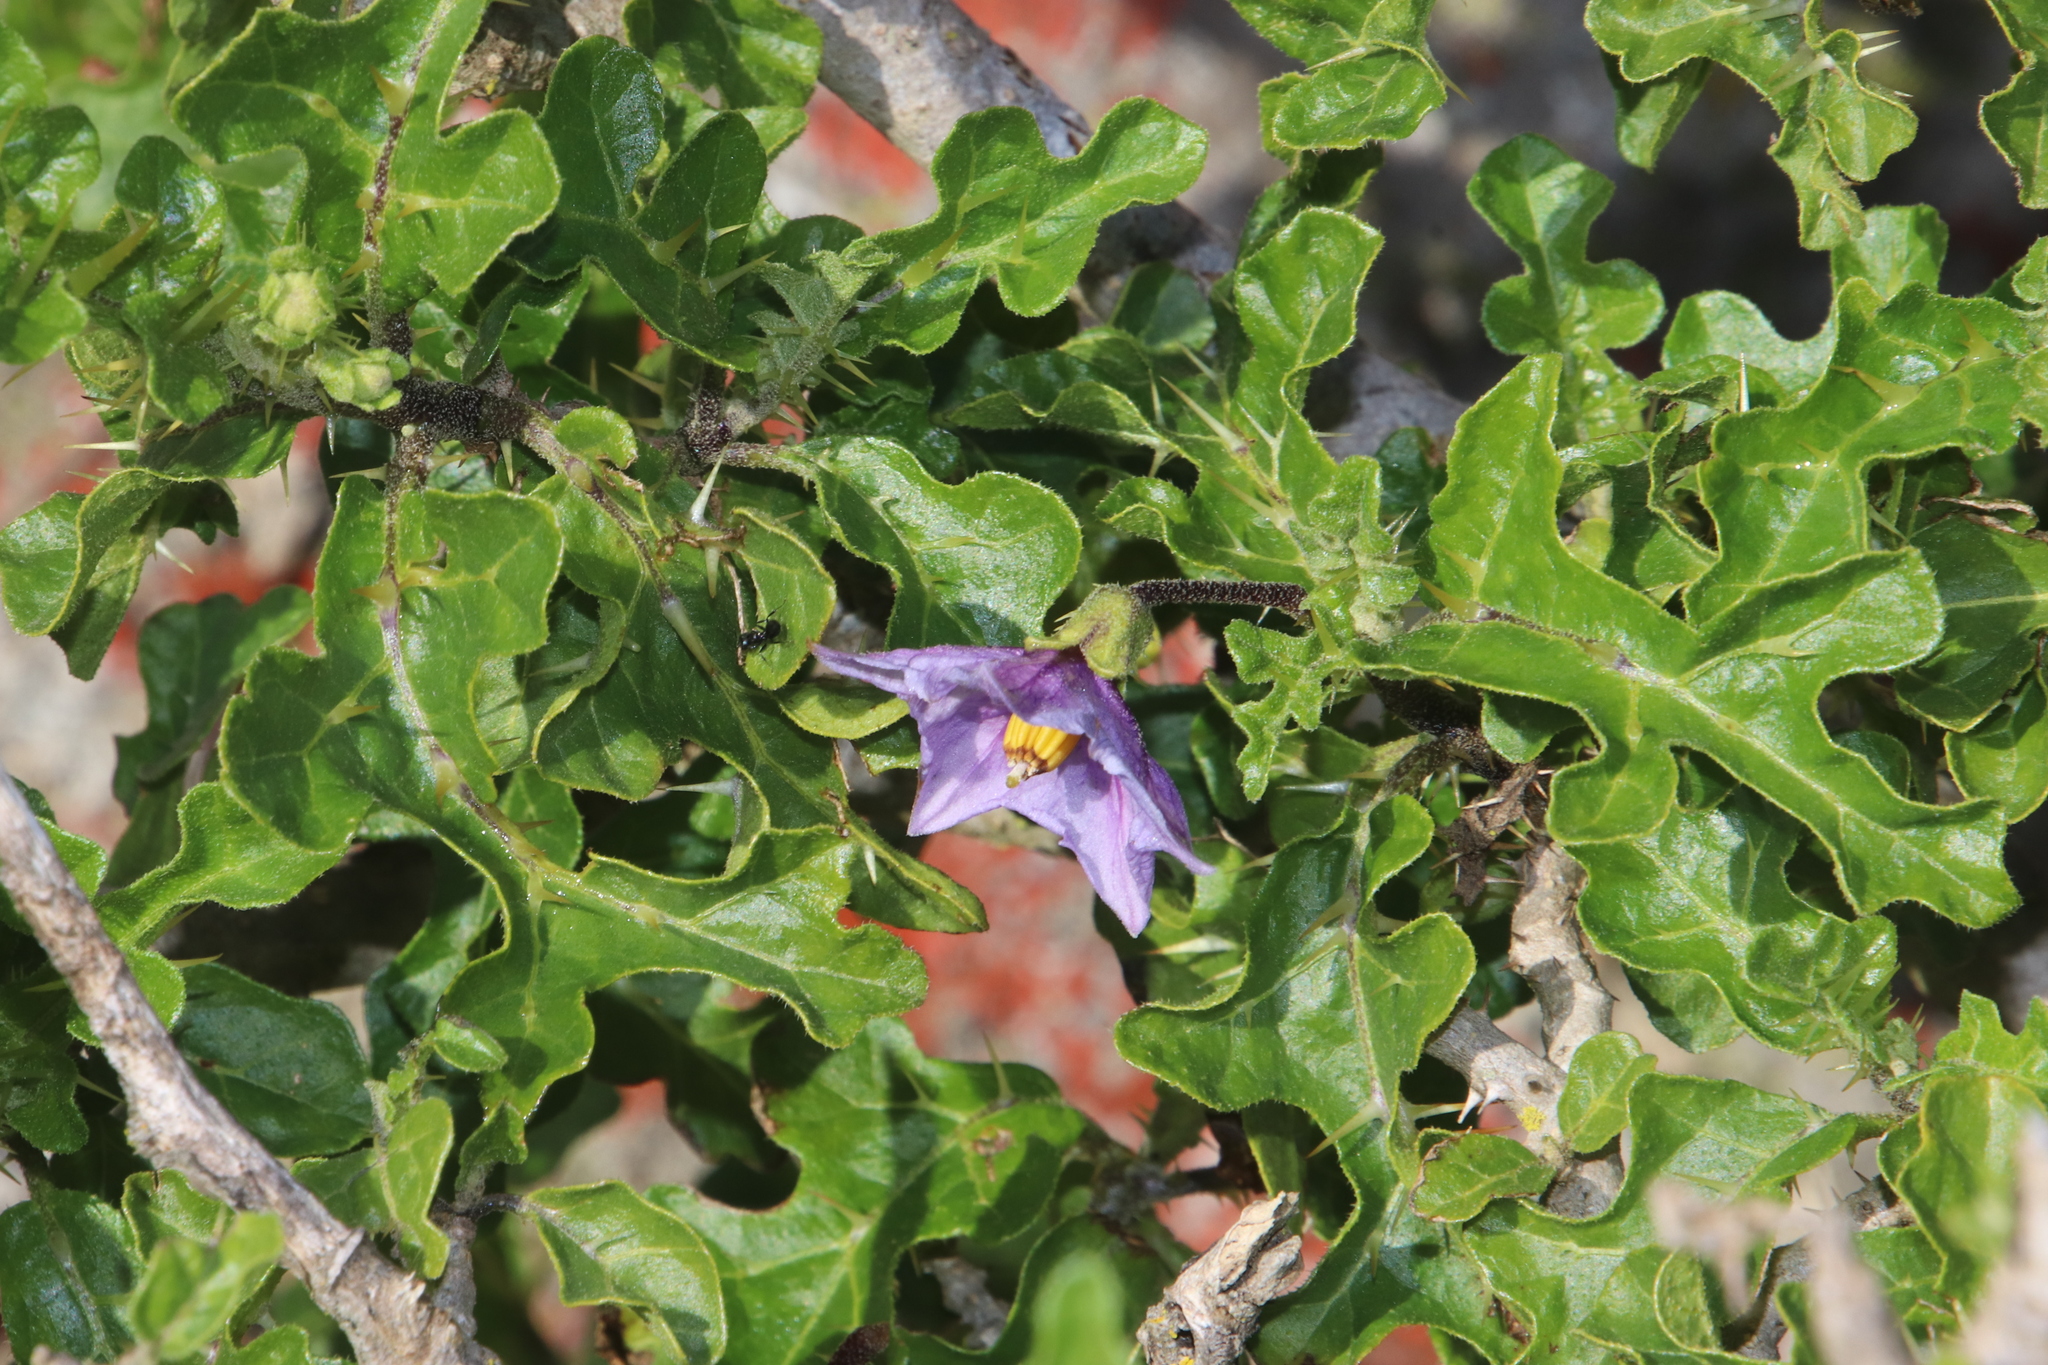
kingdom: Plantae
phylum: Tracheophyta
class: Magnoliopsida
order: Solanales
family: Solanaceae
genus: Solanum
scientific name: Solanum linnaeanum
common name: Nightshade
